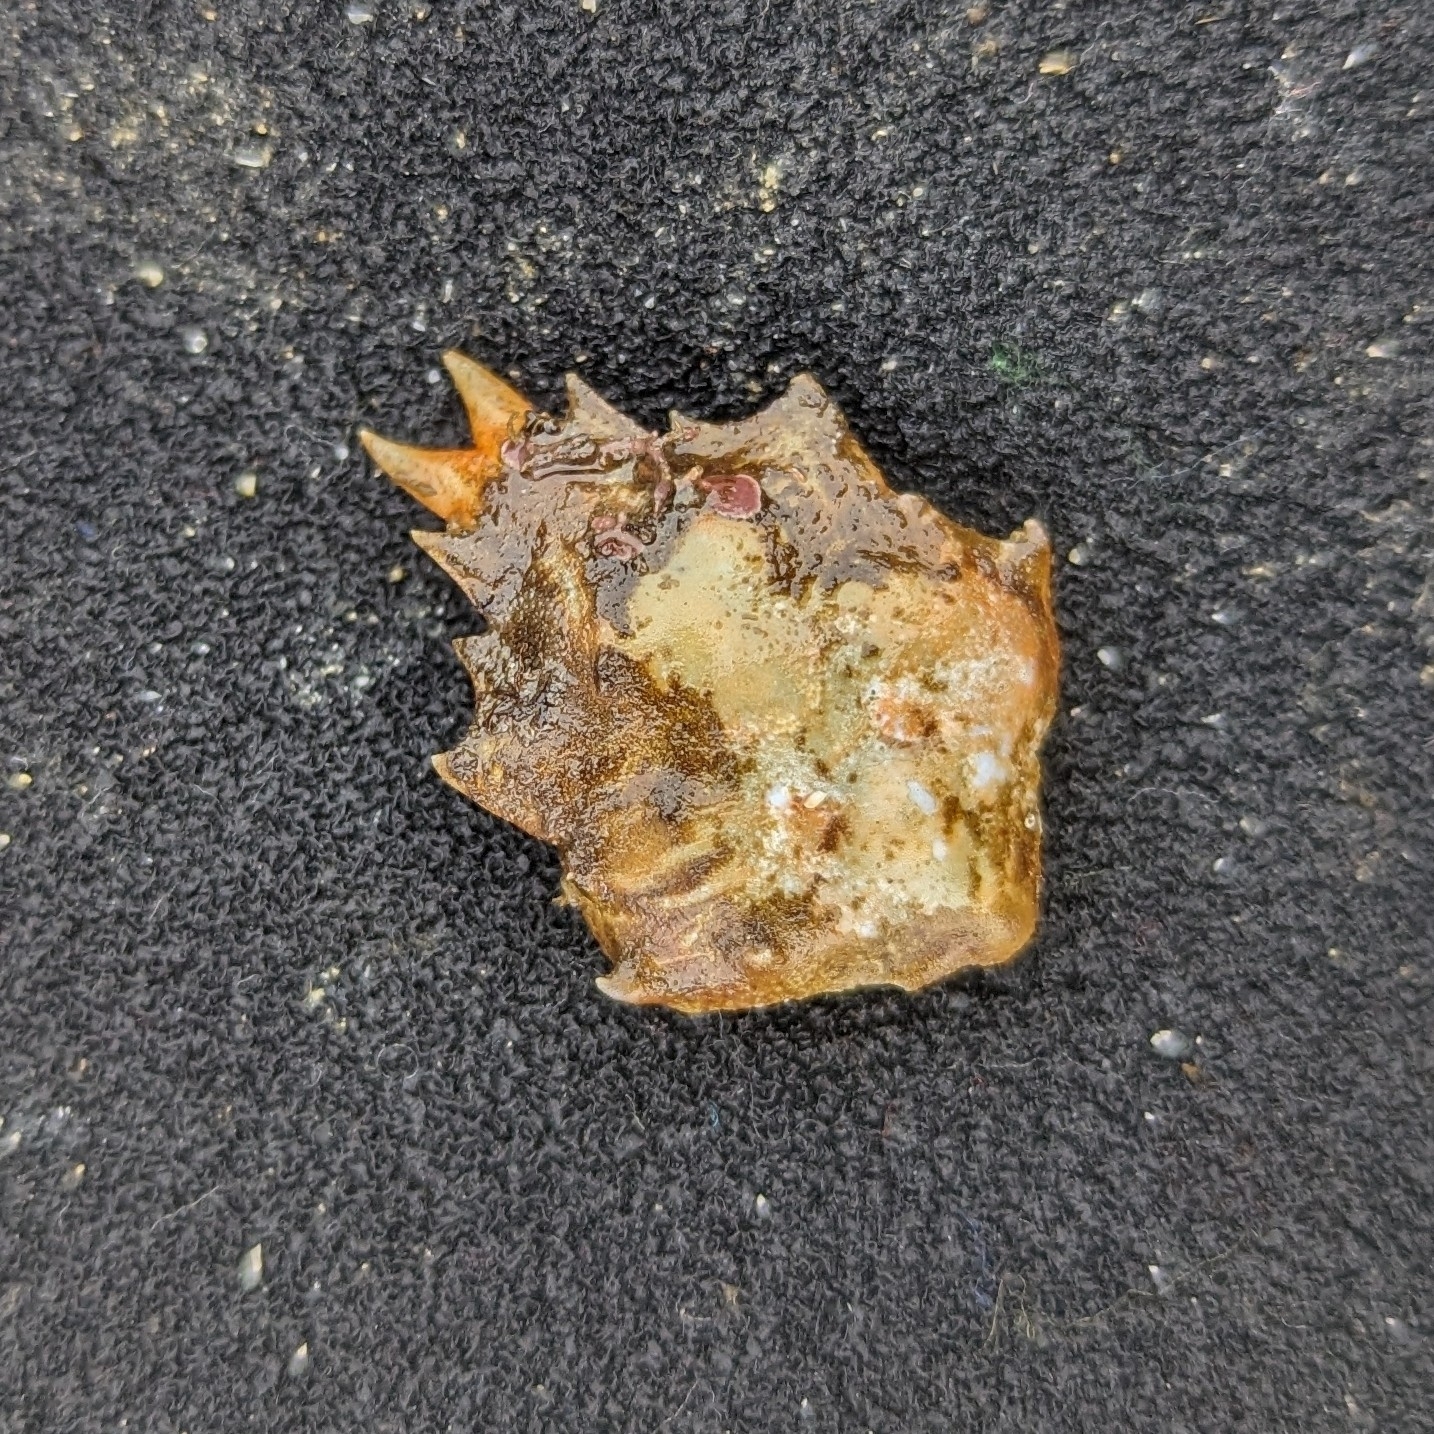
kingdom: Animalia
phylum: Arthropoda
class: Malacostraca
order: Decapoda
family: Epialtidae
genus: Pugettia
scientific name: Pugettia gracilis
